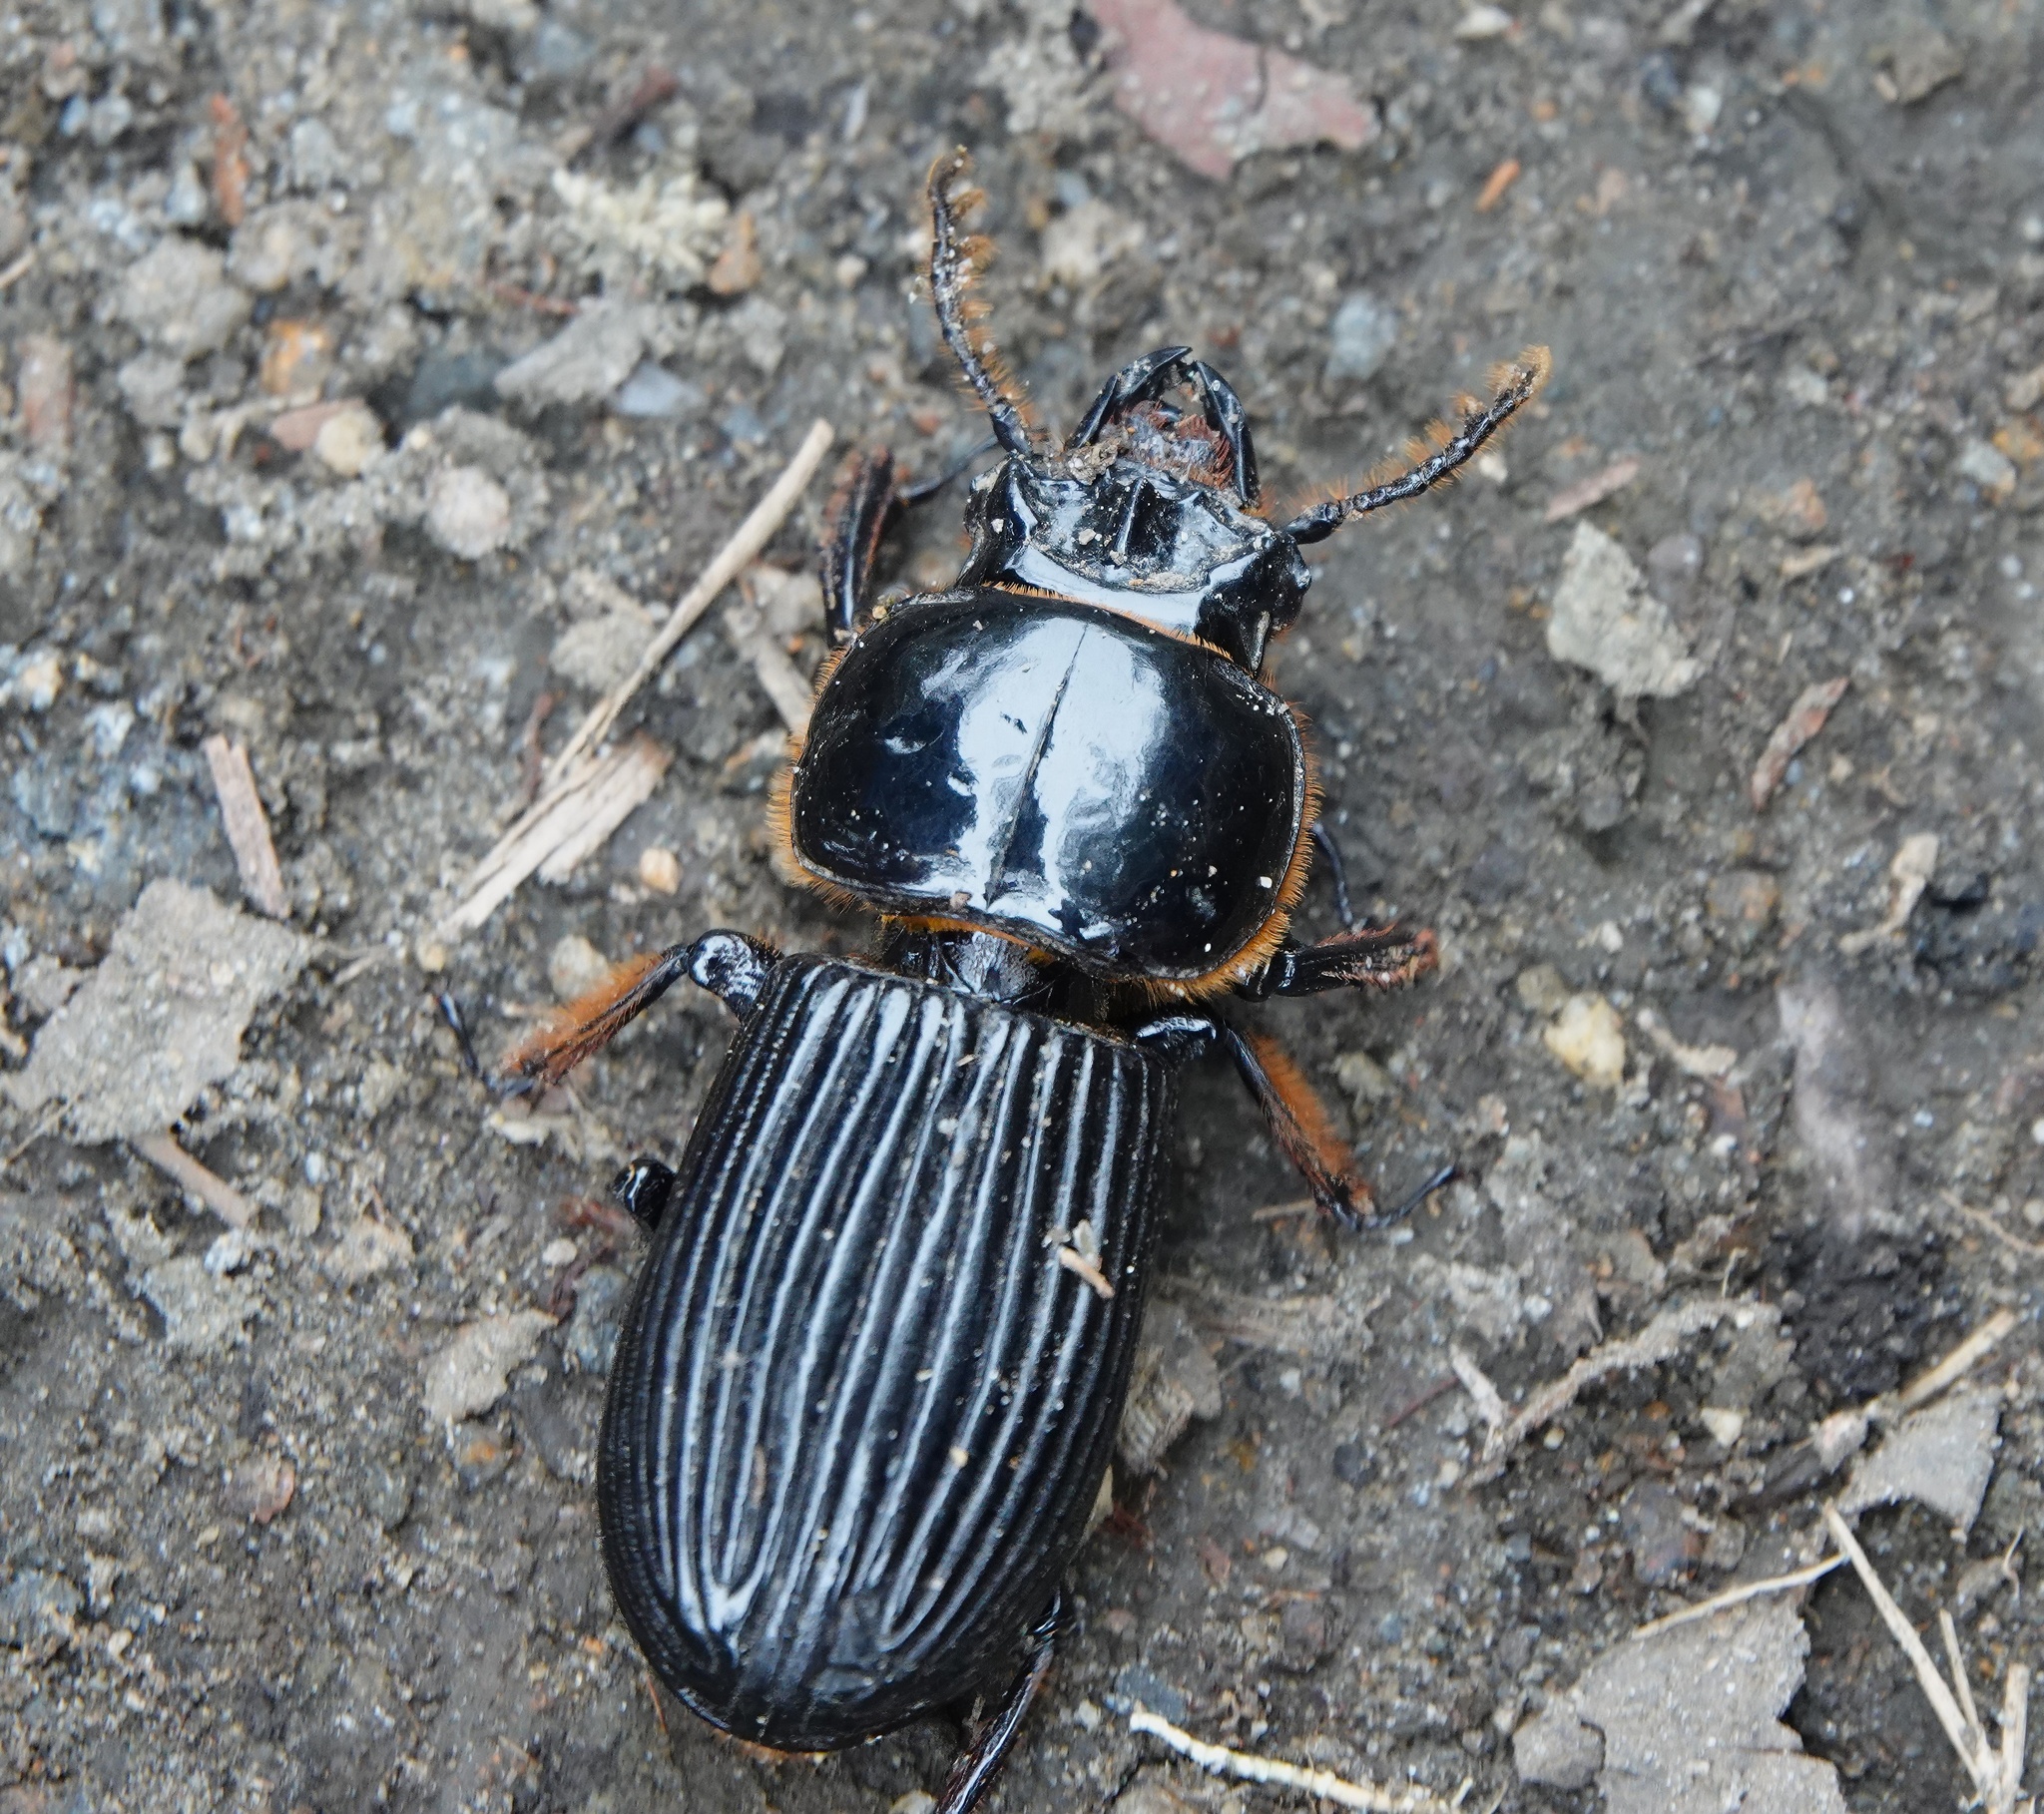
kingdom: Animalia
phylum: Arthropoda
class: Insecta
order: Coleoptera
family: Passalidae
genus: Veturius
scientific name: Veturius impressus
